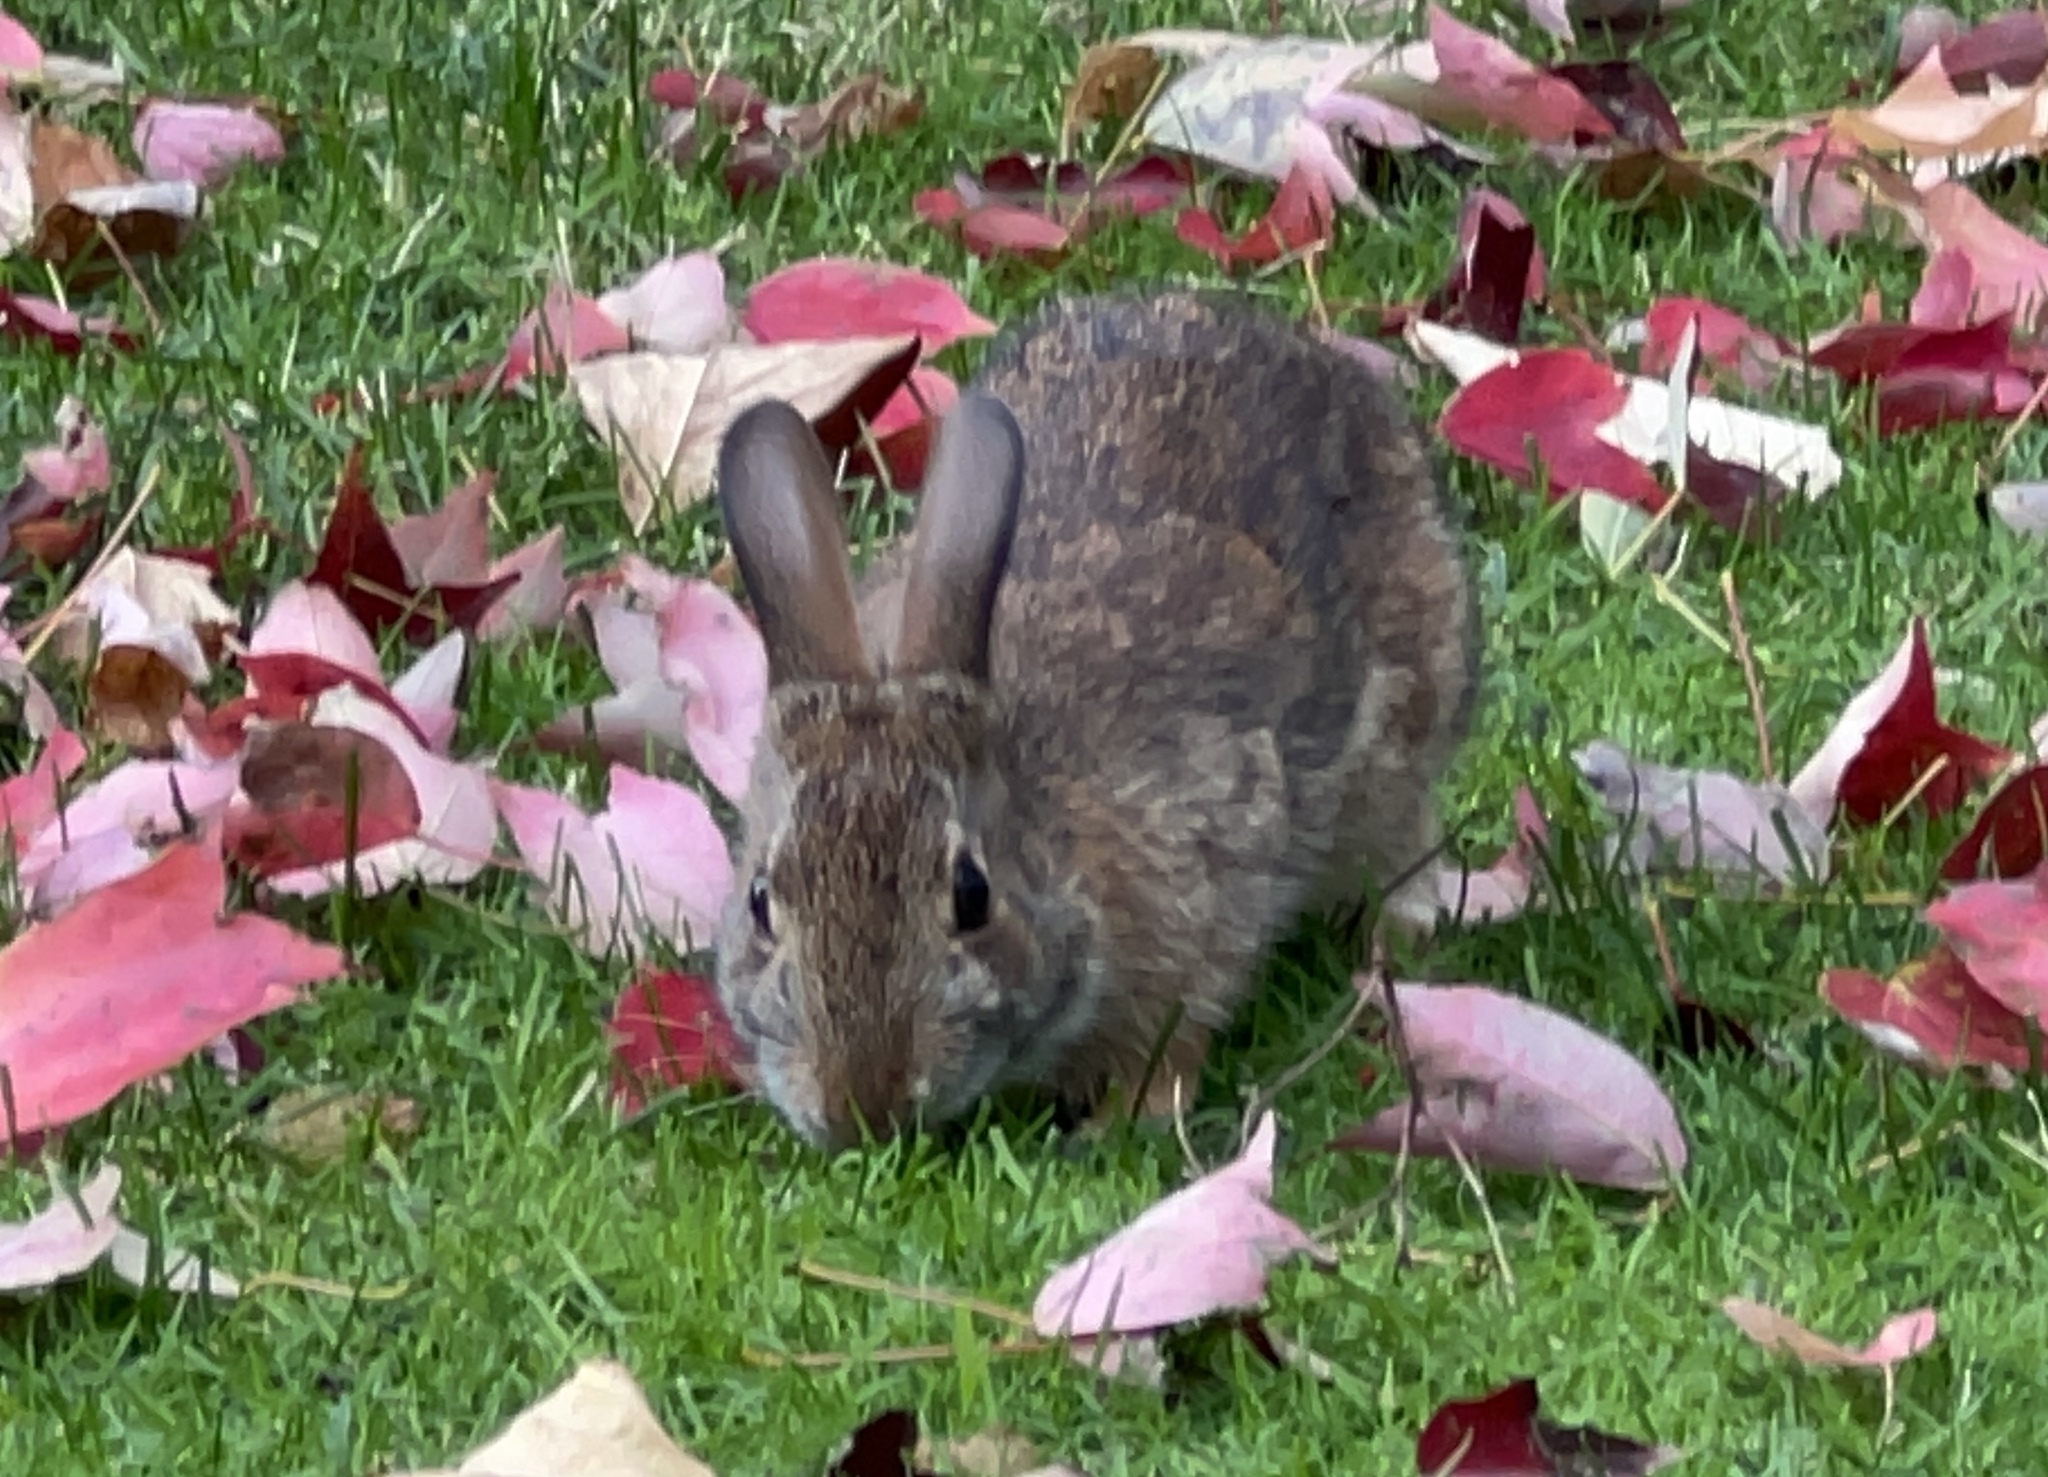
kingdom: Animalia
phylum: Chordata
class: Mammalia
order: Lagomorpha
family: Leporidae
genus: Sylvilagus
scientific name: Sylvilagus floridanus
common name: Eastern cottontail
